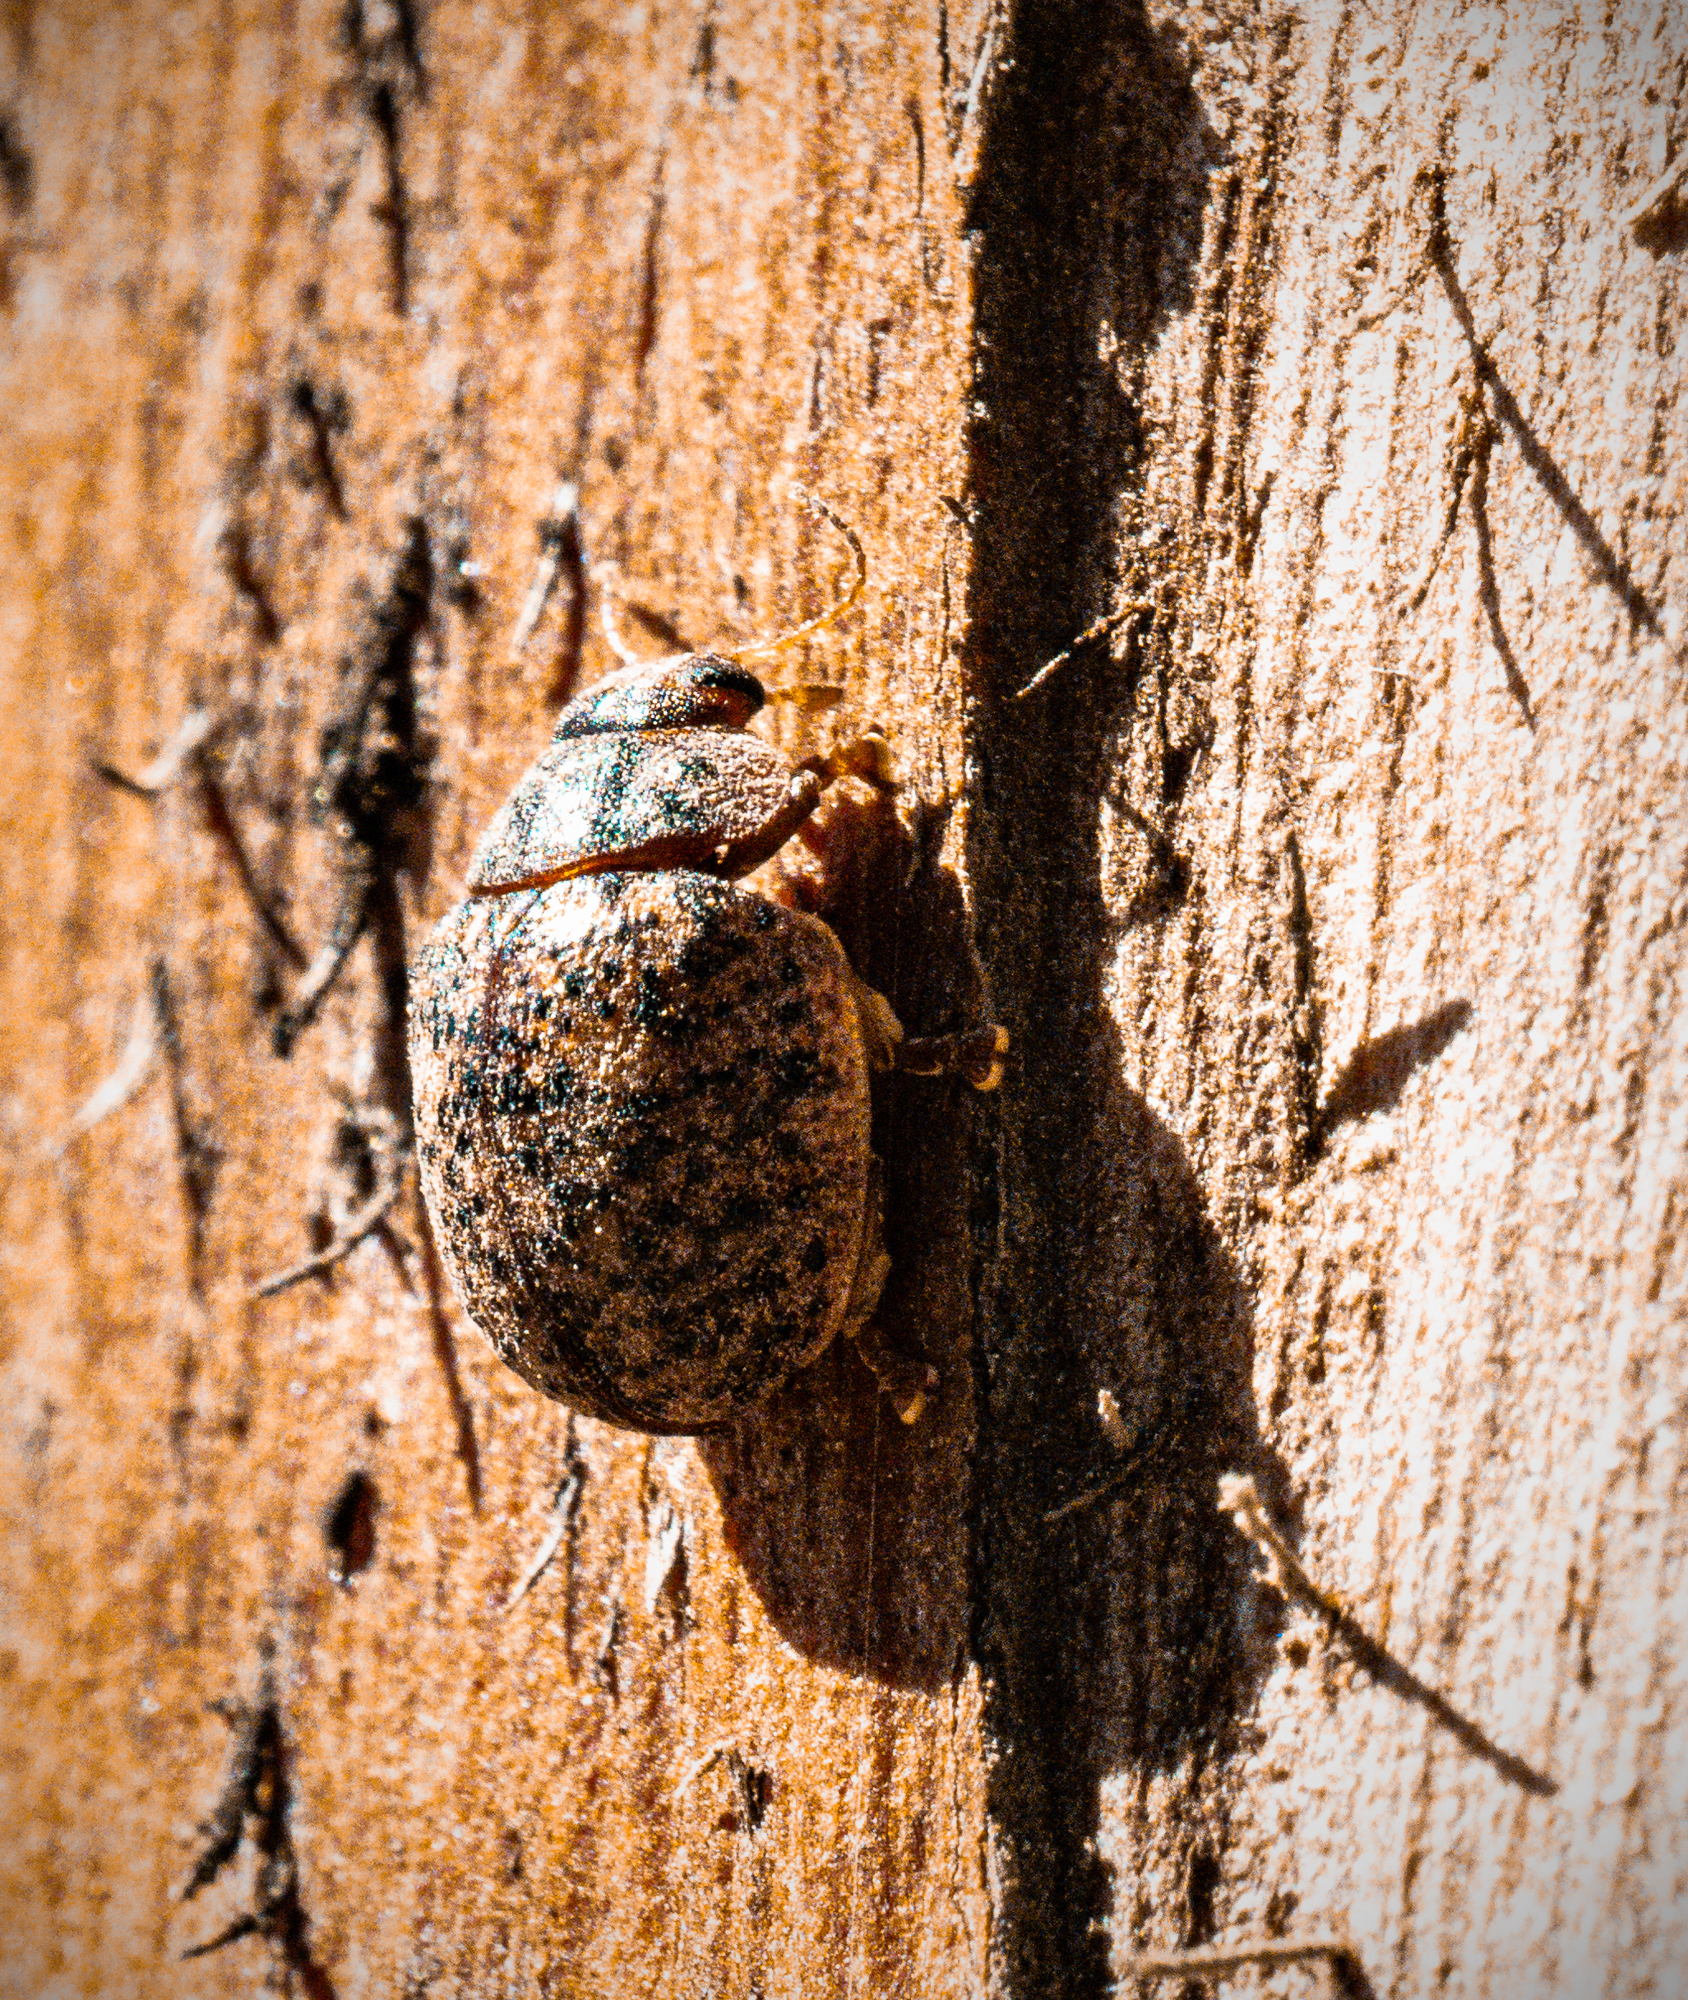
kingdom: Animalia
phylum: Arthropoda
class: Insecta
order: Coleoptera
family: Chrysomelidae
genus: Trachymela
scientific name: Trachymela sloanei
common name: Australian tortoise beetle
